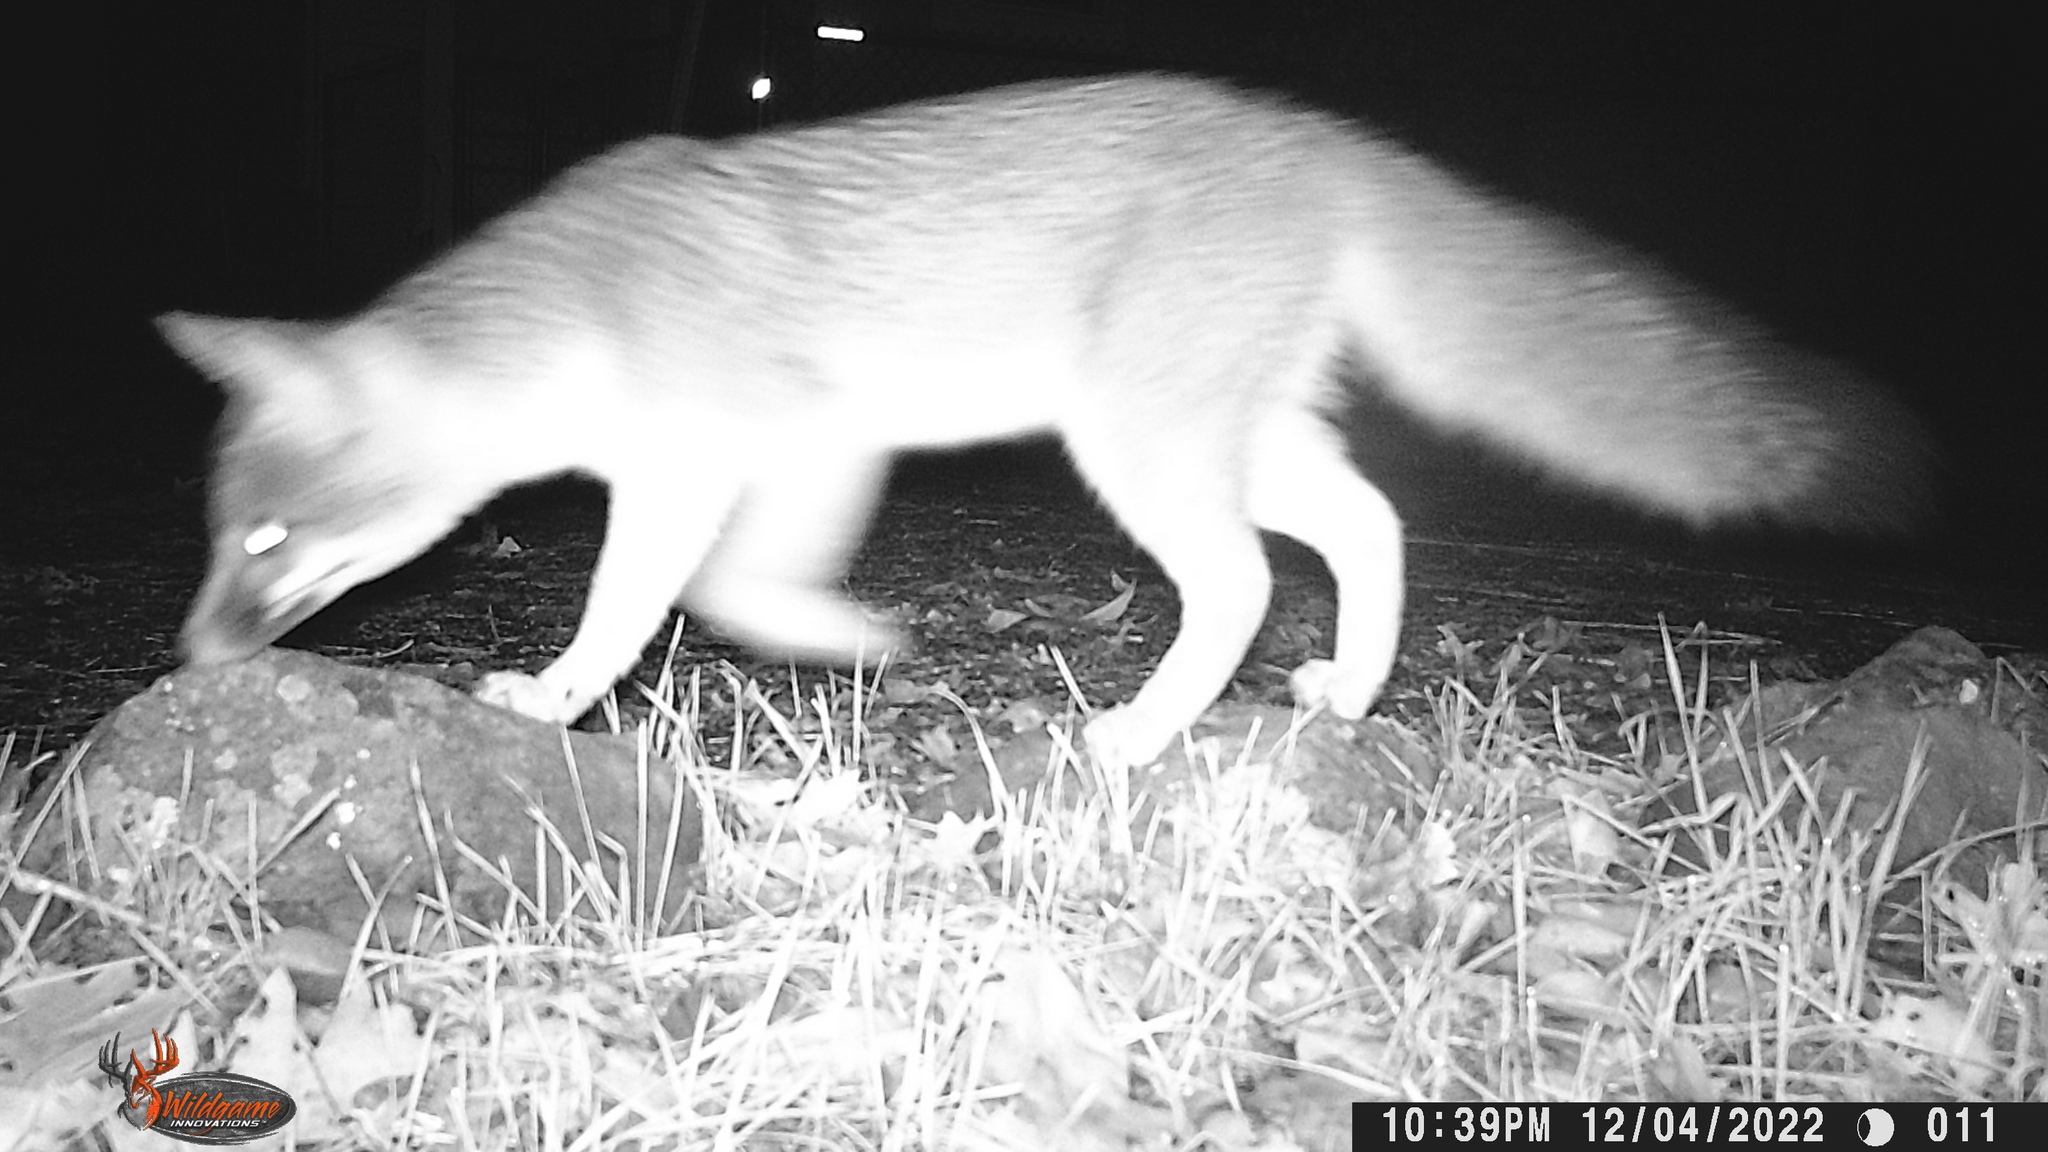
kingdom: Animalia
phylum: Chordata
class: Mammalia
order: Carnivora
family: Canidae
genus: Urocyon
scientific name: Urocyon cinereoargenteus
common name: Gray fox
